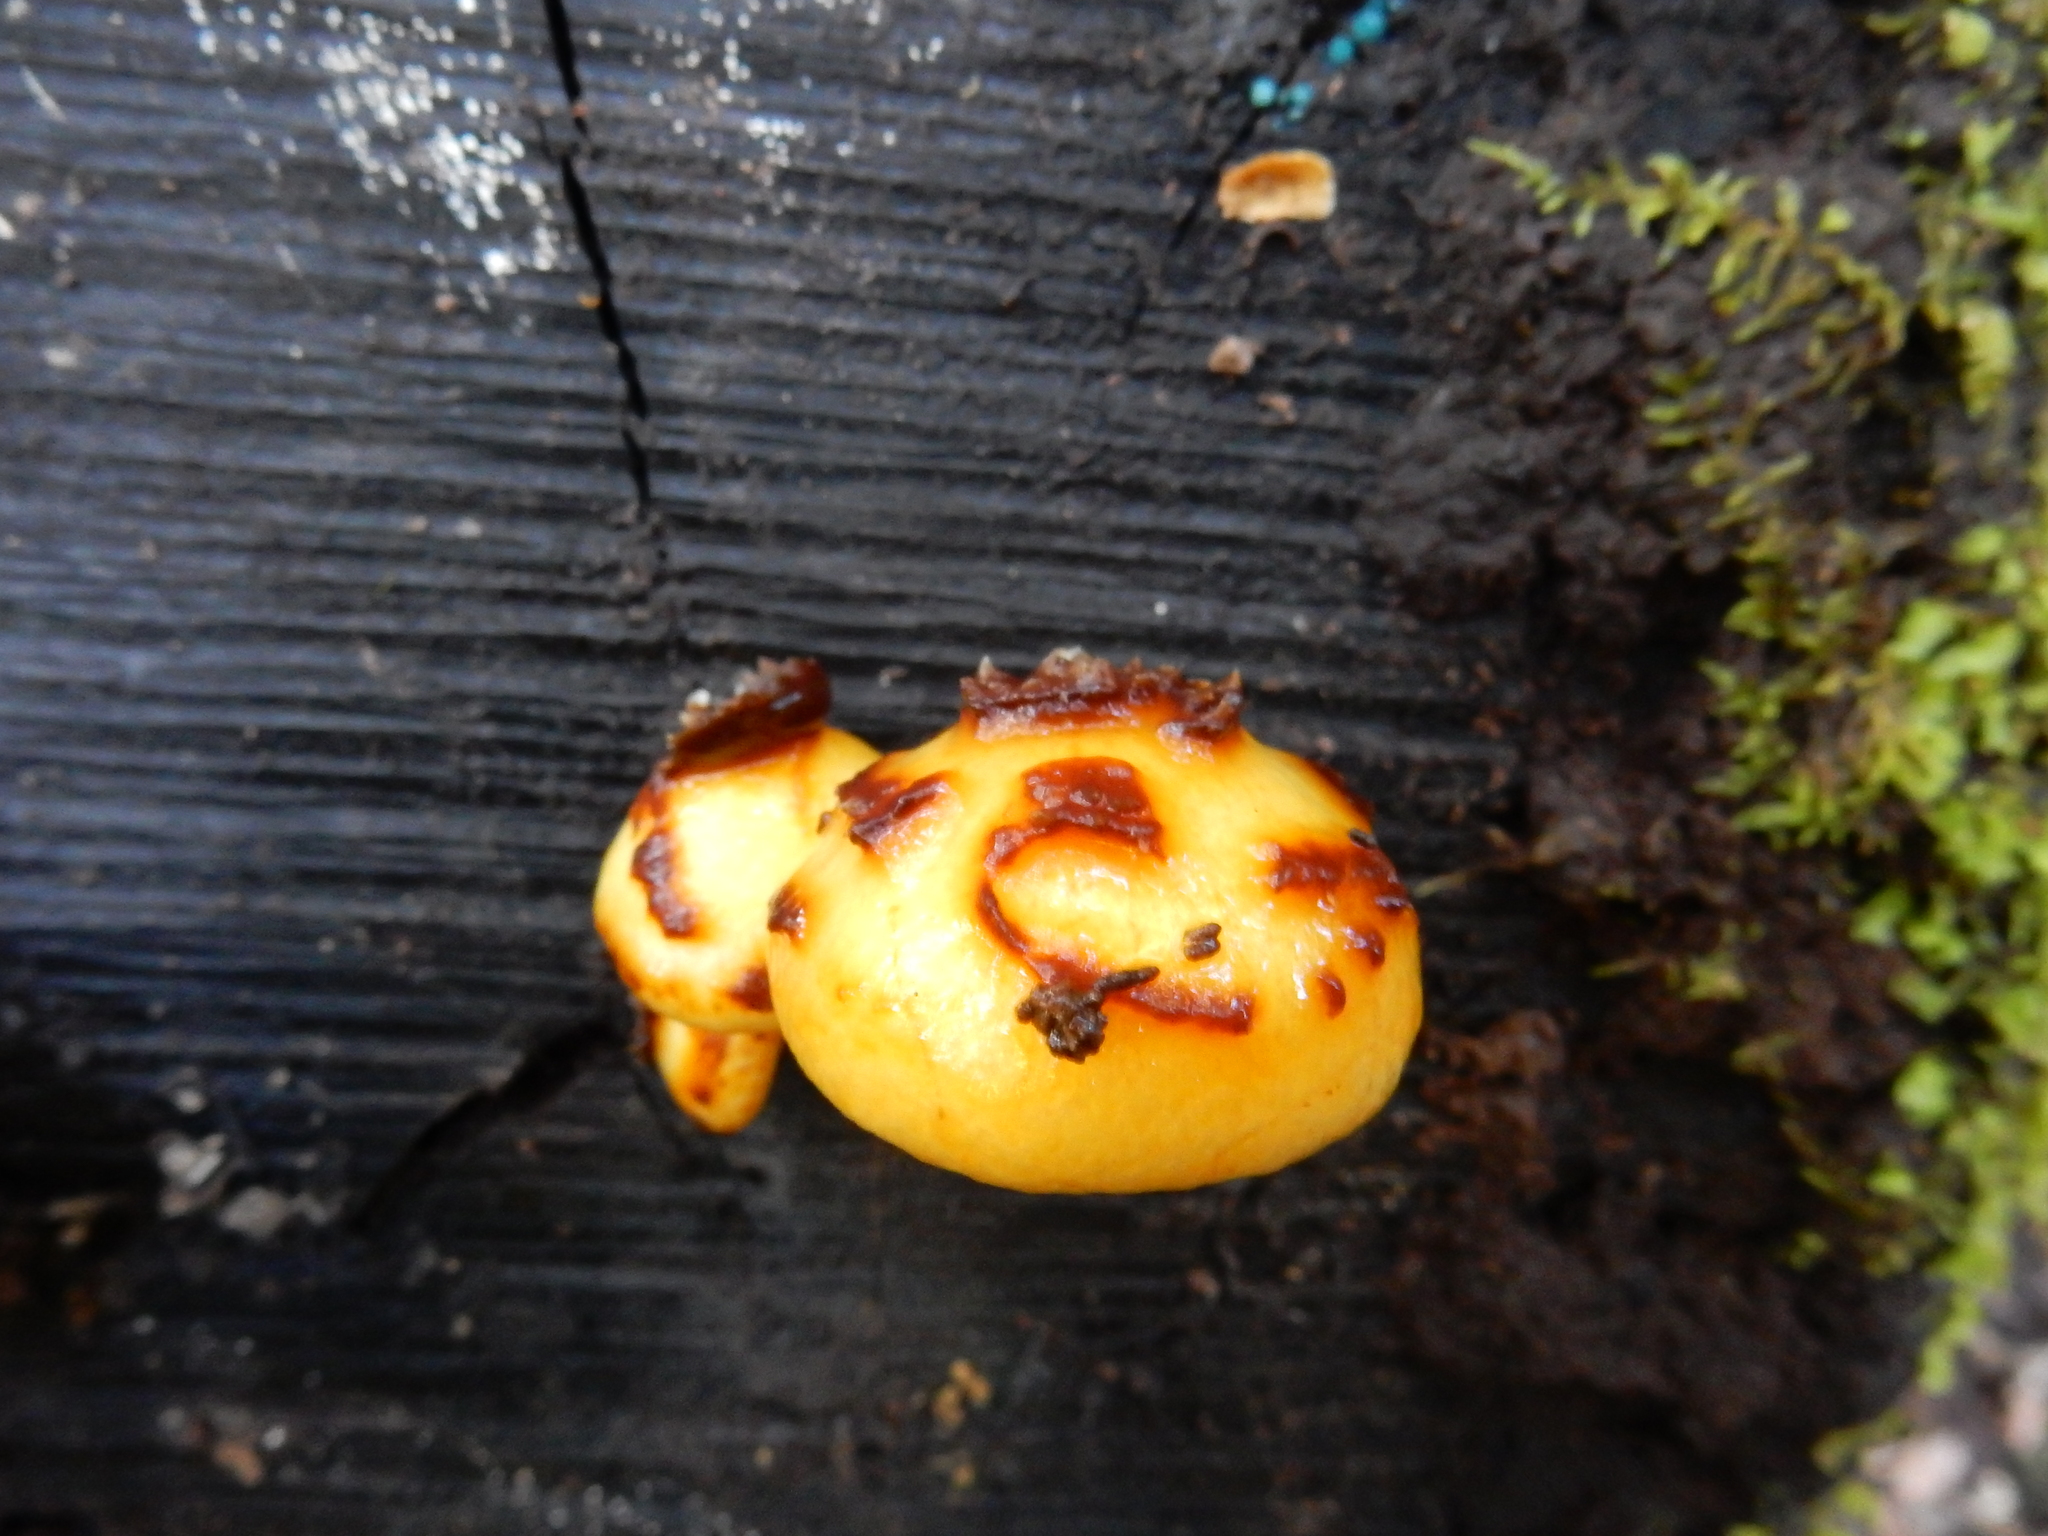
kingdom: Fungi
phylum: Basidiomycota
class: Agaricomycetes
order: Agaricales
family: Strophariaceae
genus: Pholiota
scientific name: Pholiota glutinosa
